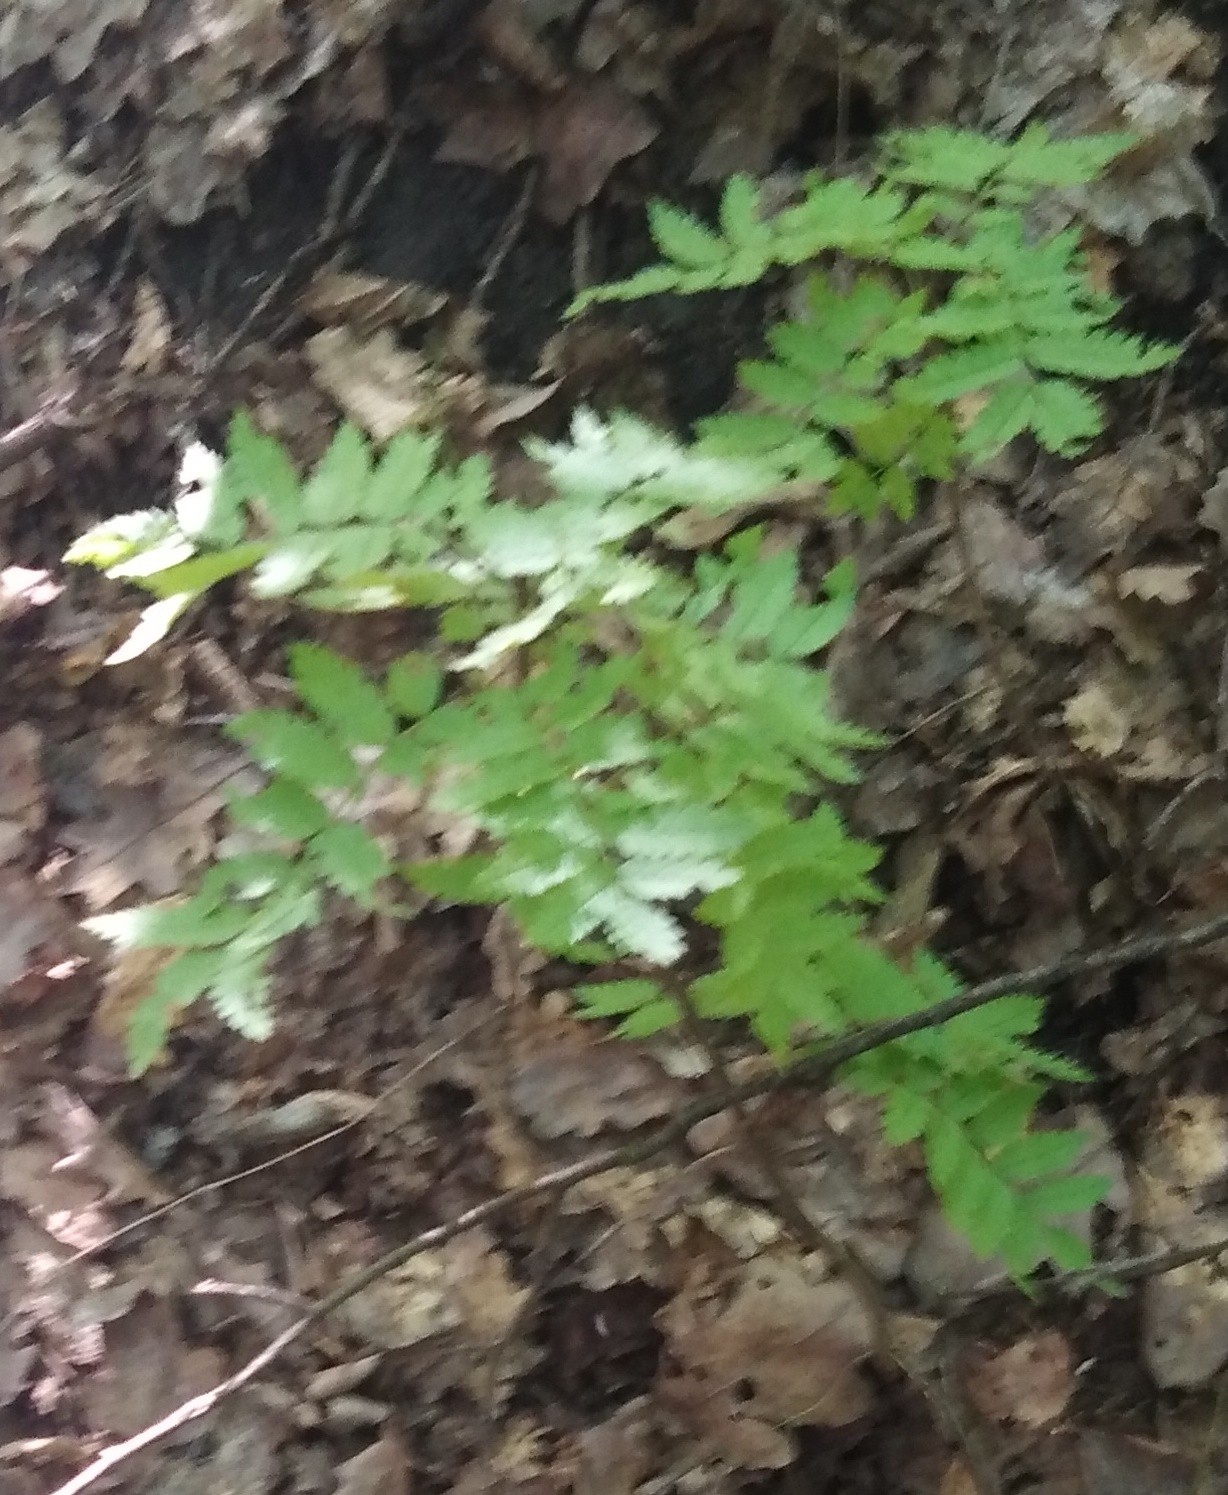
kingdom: Plantae
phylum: Tracheophyta
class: Magnoliopsida
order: Rosales
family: Rosaceae
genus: Sorbus
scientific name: Sorbus aucuparia
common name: Rowan
